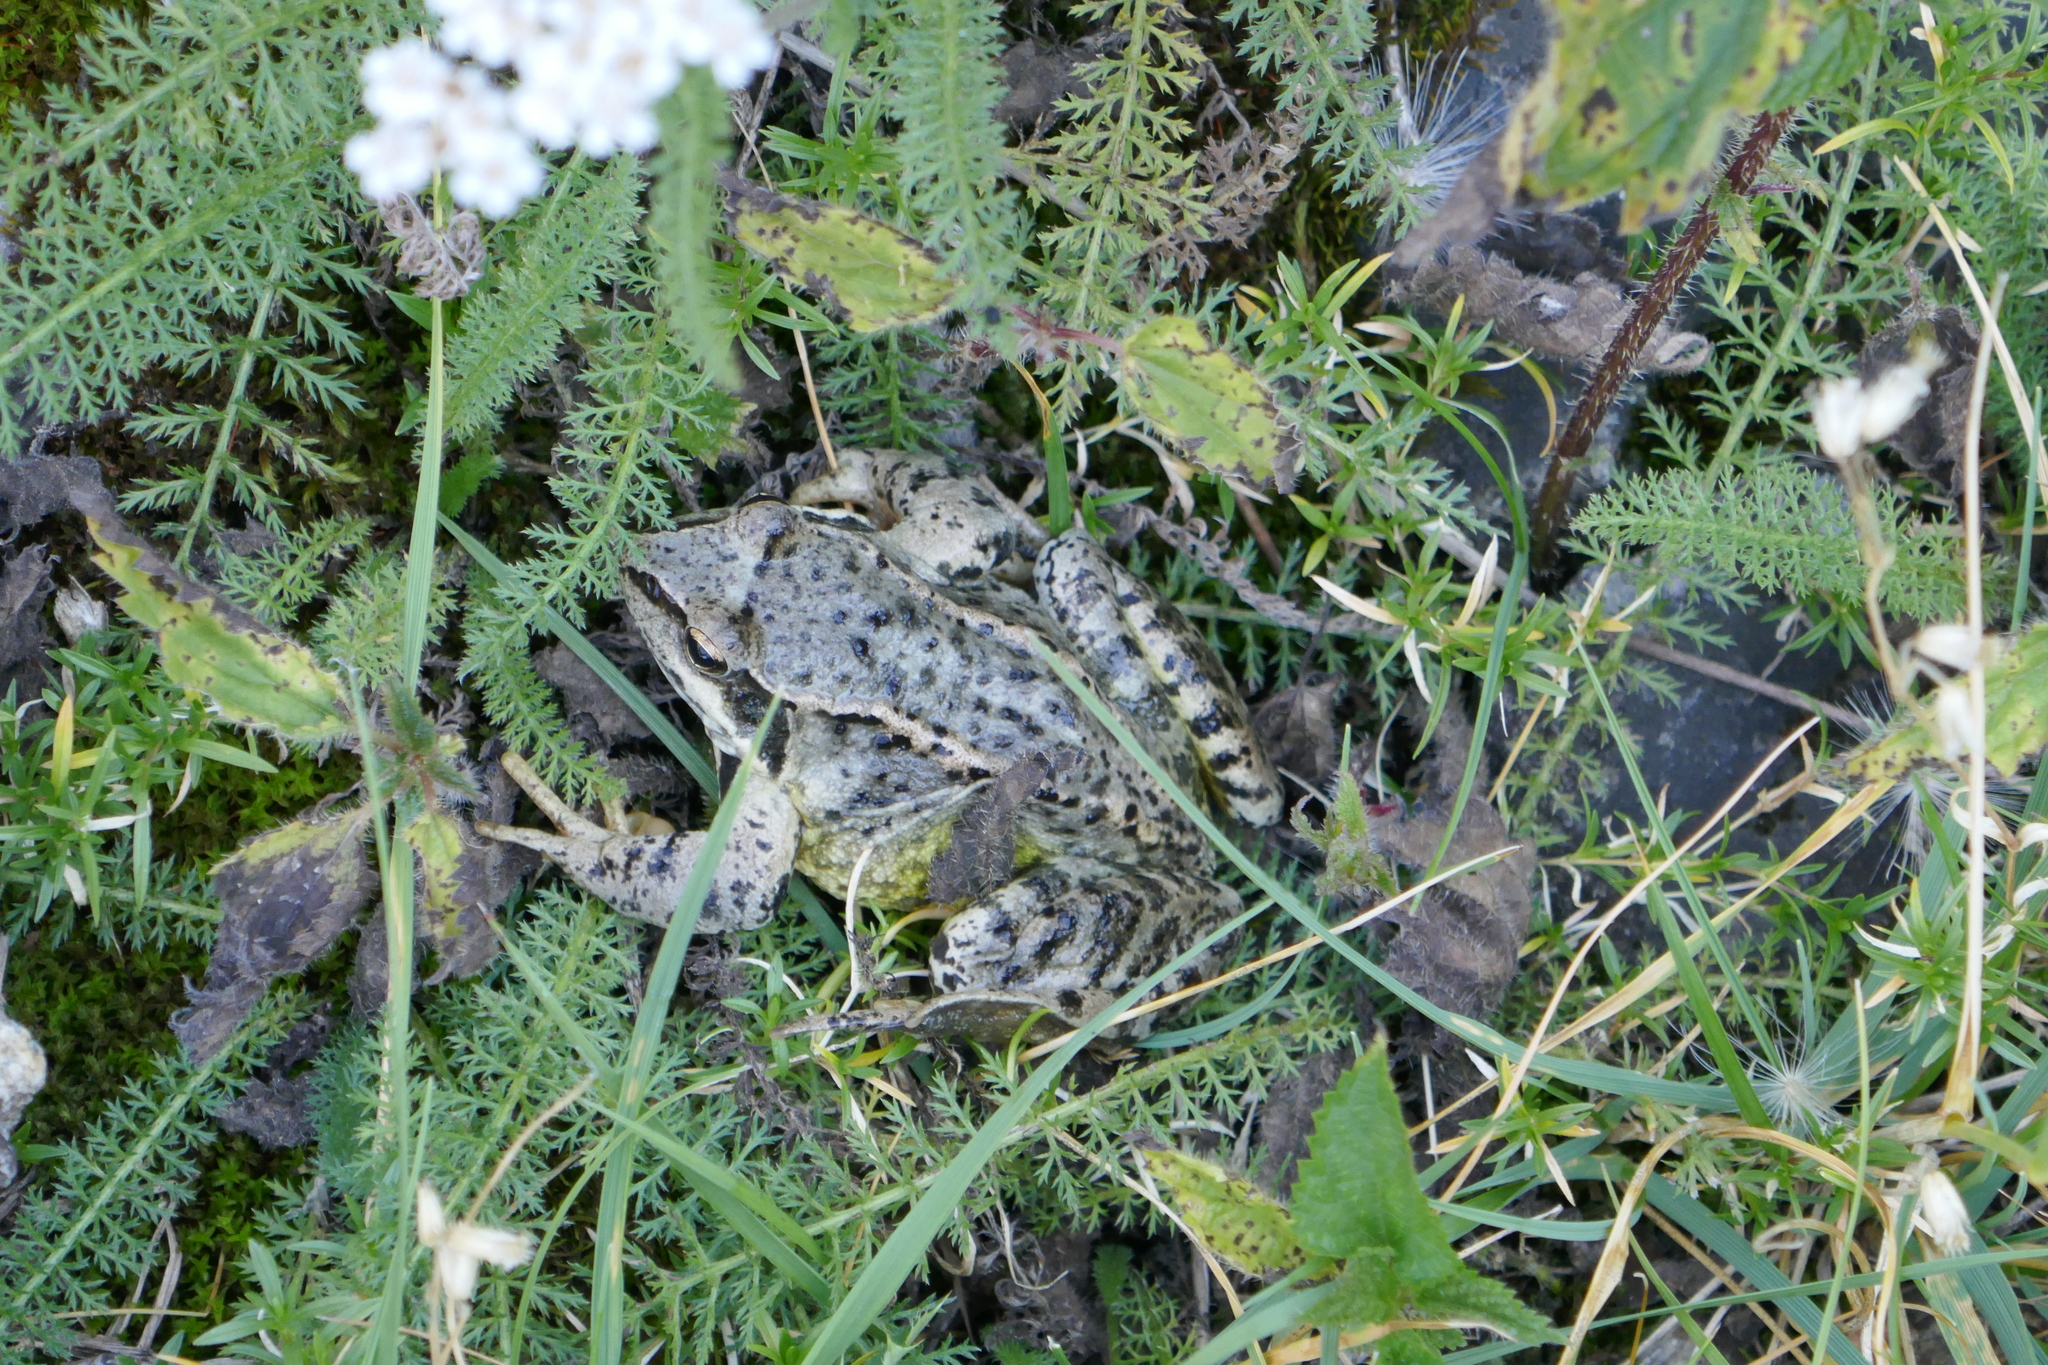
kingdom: Animalia
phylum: Chordata
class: Amphibia
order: Anura
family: Ranidae
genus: Rana
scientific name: Rana temporaria
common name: Common frog
